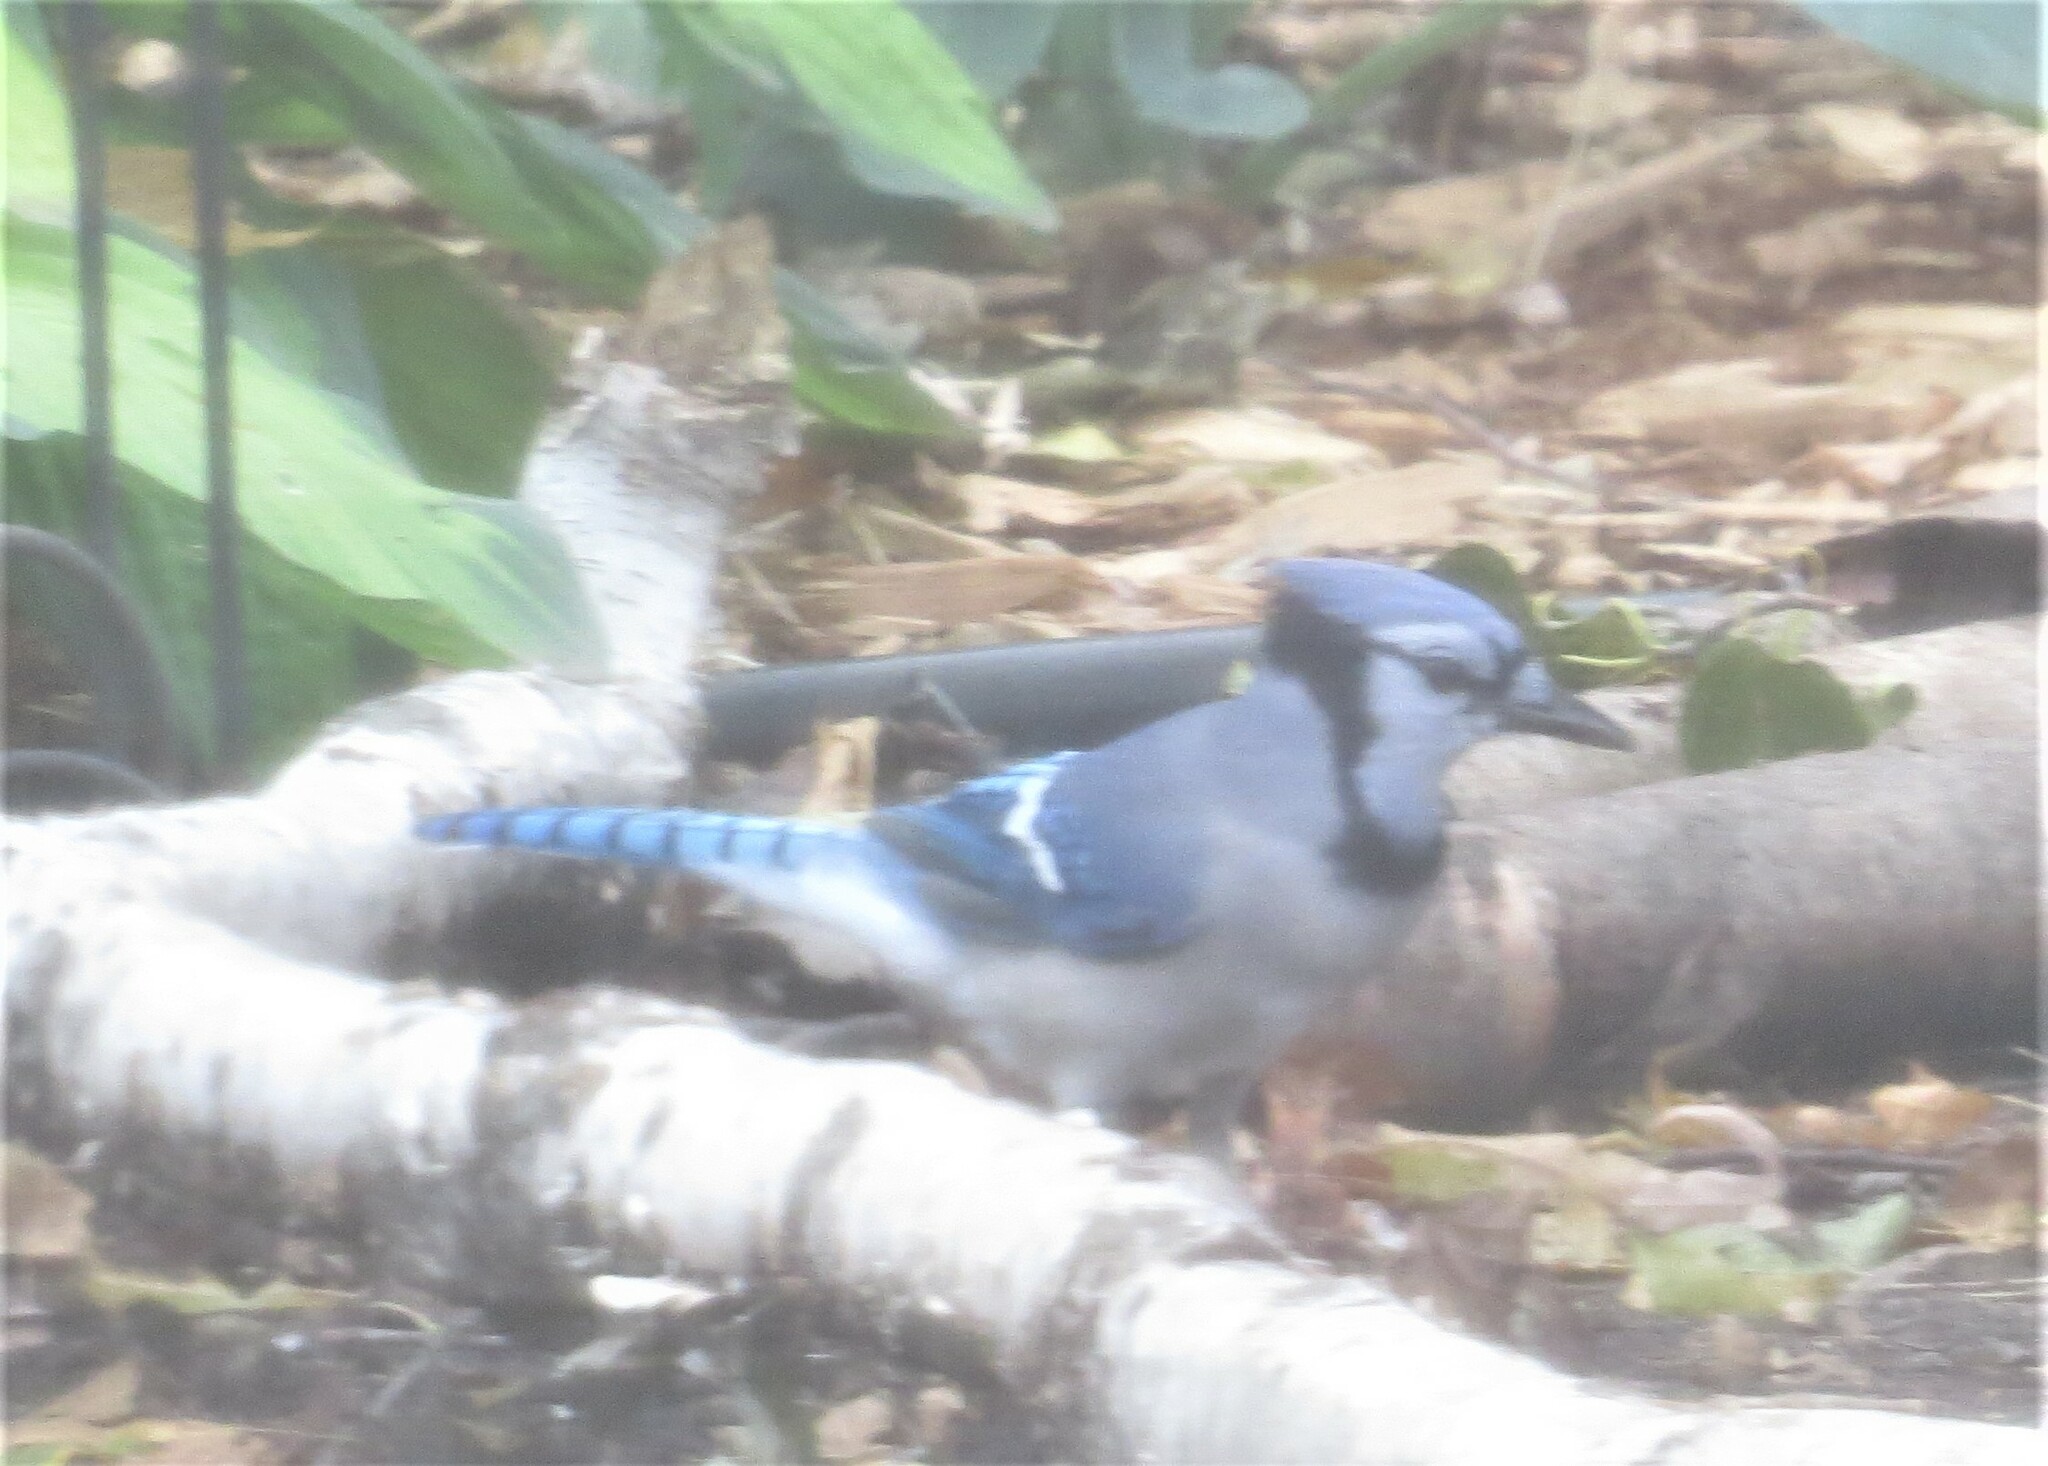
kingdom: Animalia
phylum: Chordata
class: Aves
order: Passeriformes
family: Corvidae
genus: Cyanocitta
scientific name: Cyanocitta cristata
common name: Blue jay
